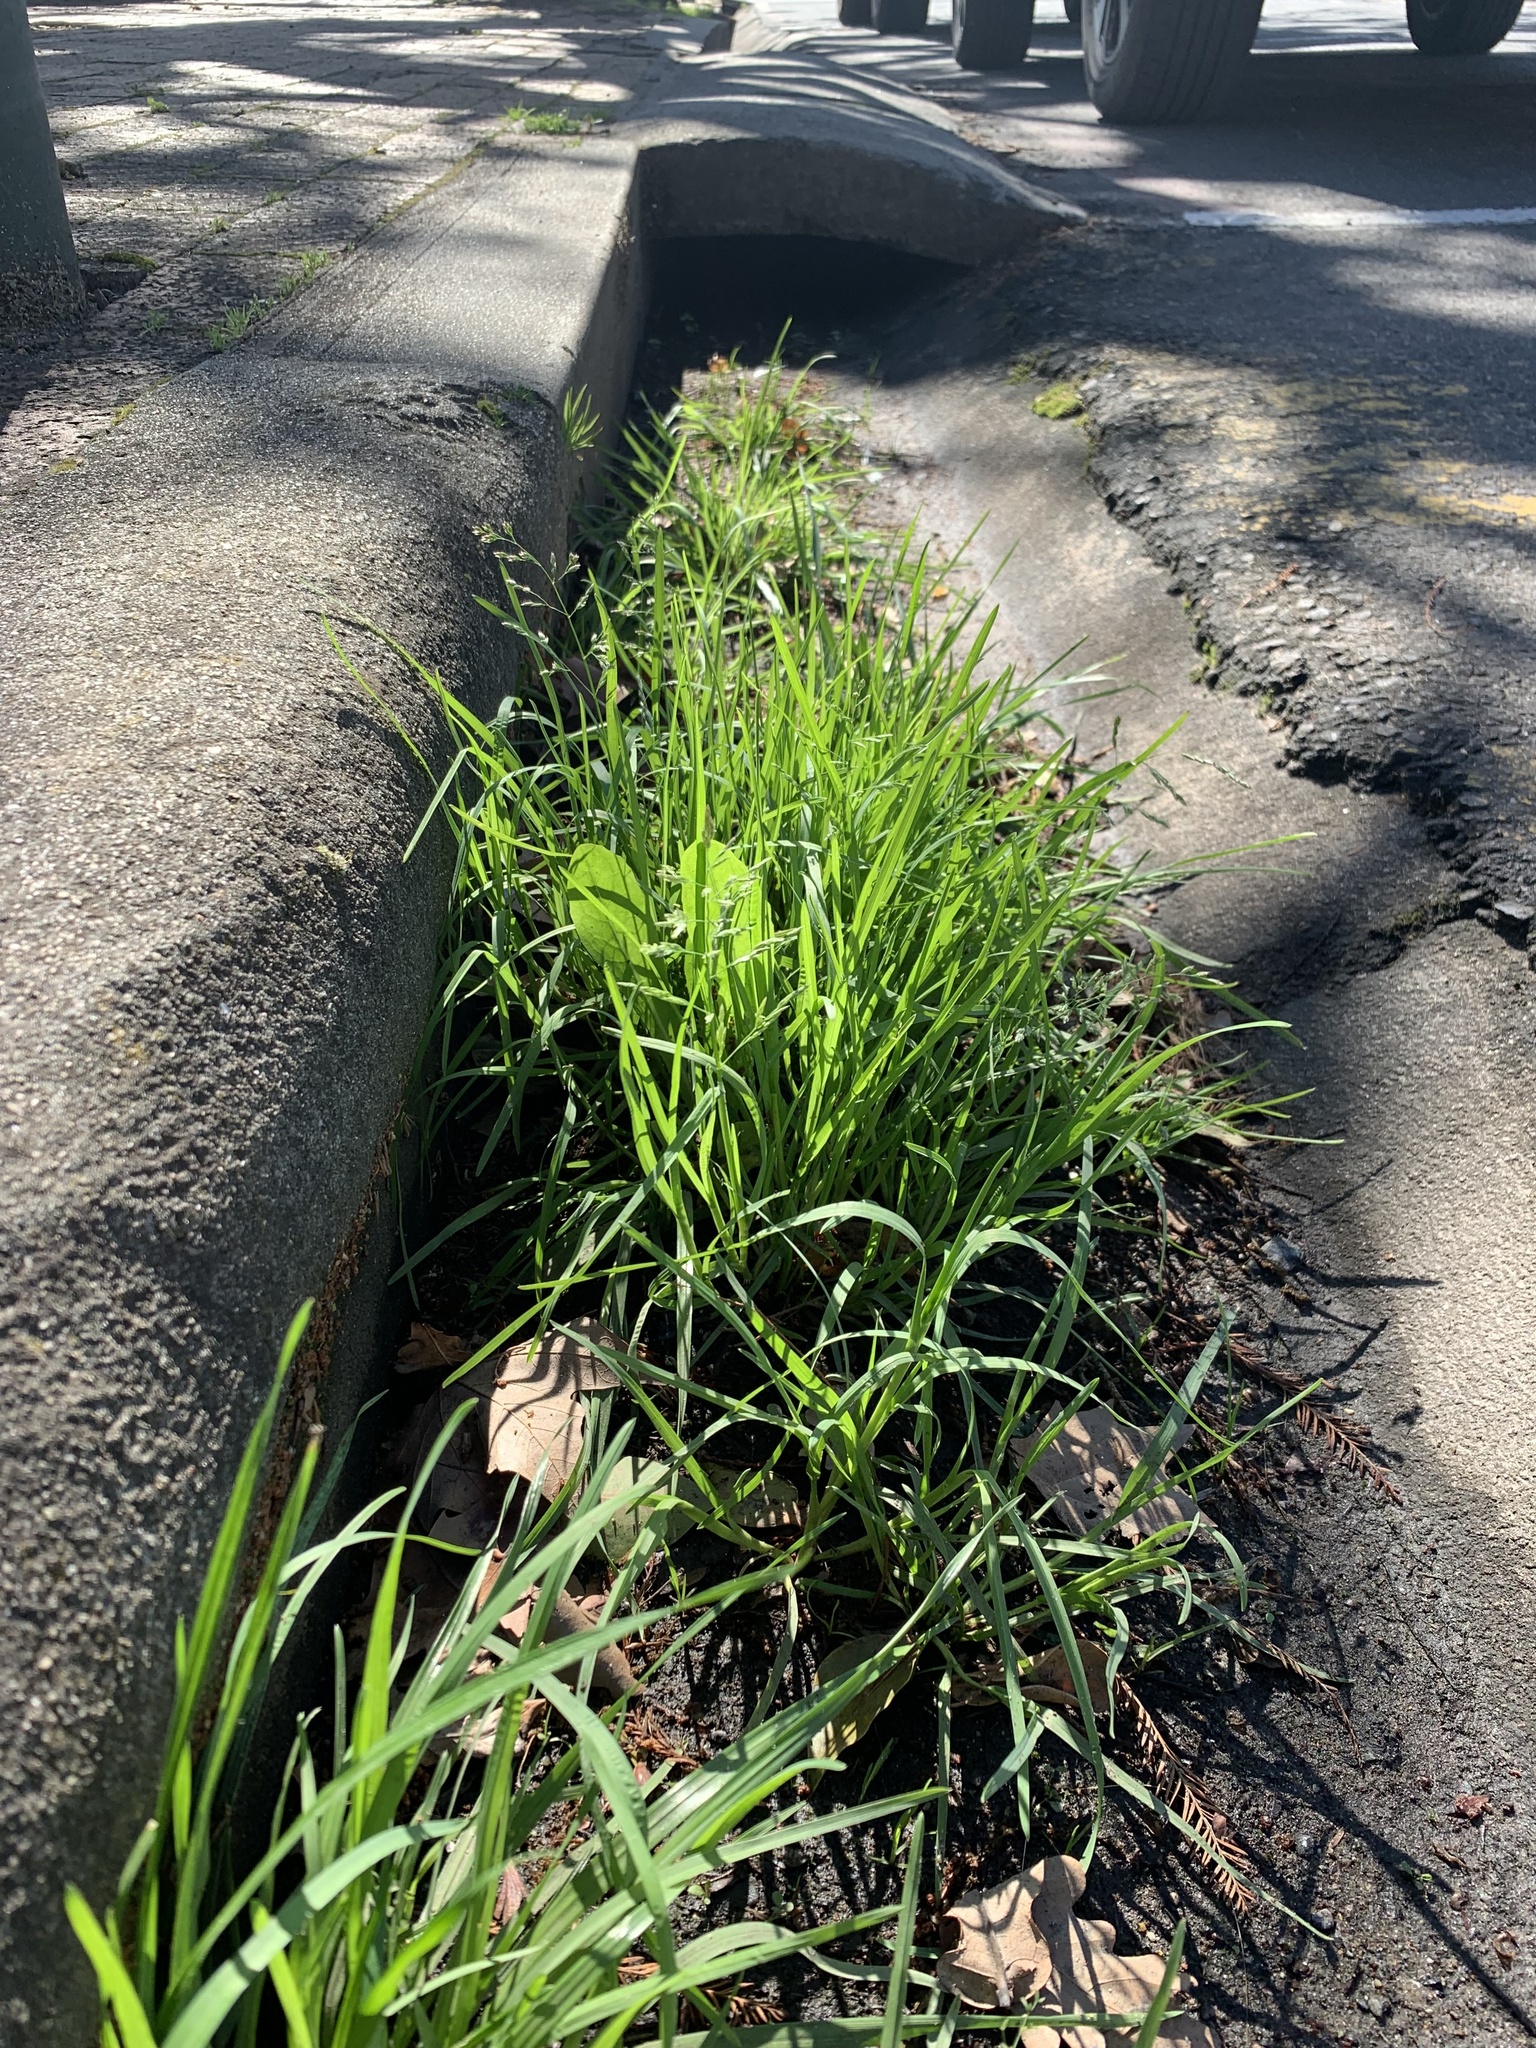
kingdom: Plantae
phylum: Tracheophyta
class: Liliopsida
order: Poales
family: Poaceae
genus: Poa
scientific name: Poa annua
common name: Annual bluegrass
